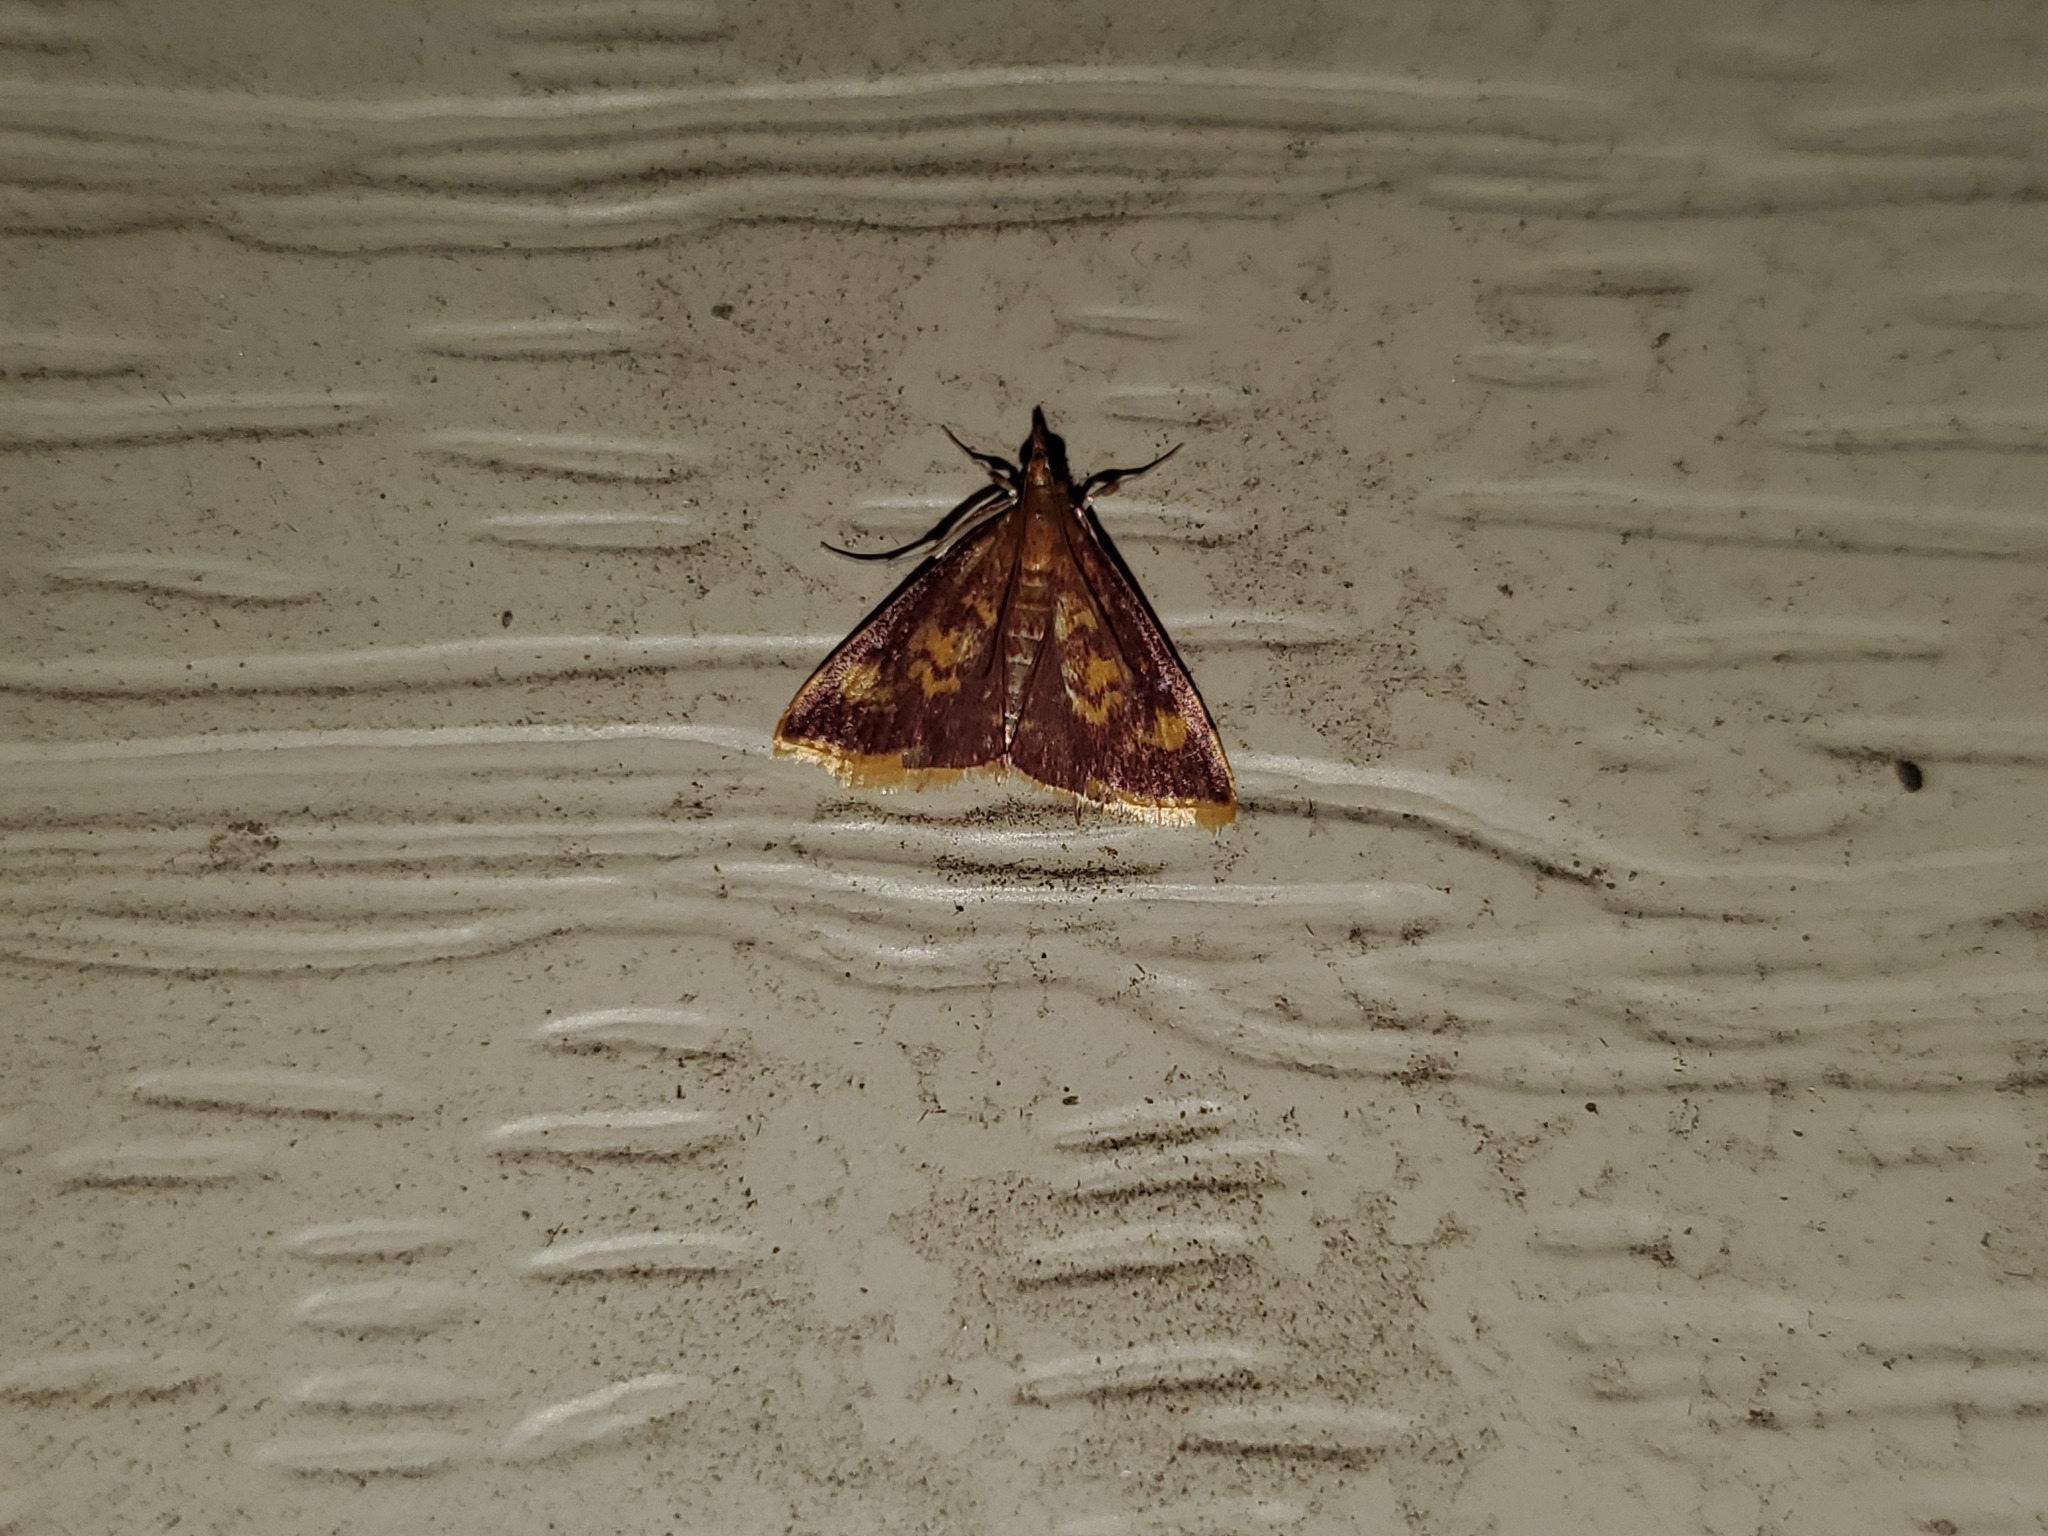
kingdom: Animalia
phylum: Arthropoda
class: Insecta
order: Lepidoptera
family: Crambidae
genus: Pyrausta
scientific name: Pyrausta acrionalis
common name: Mint-loving pyrausta moth
